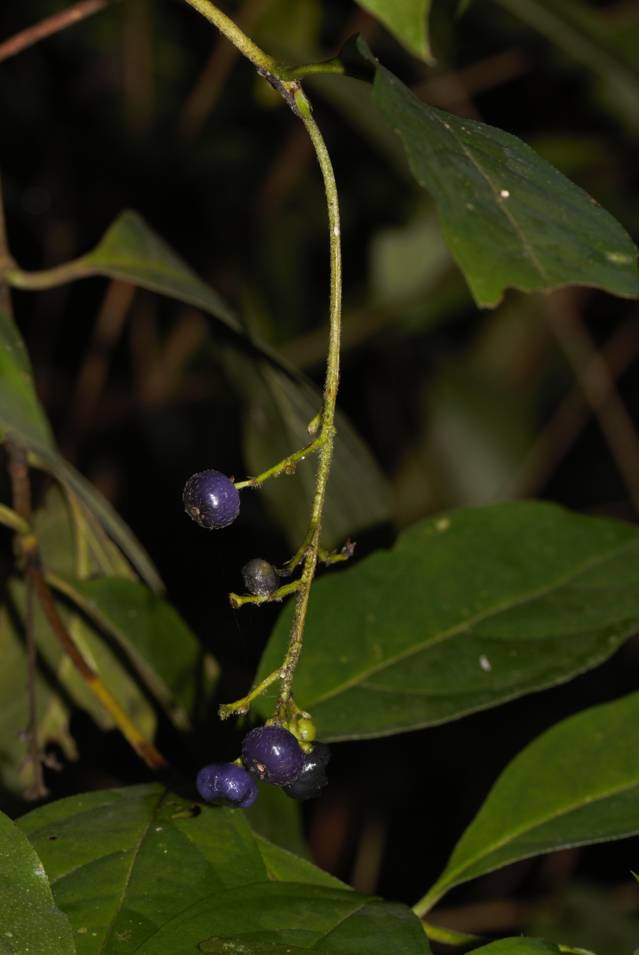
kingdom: Plantae
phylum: Tracheophyta
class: Magnoliopsida
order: Gentianales
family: Rubiaceae
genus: Bertiera
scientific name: Bertiera guianensis
